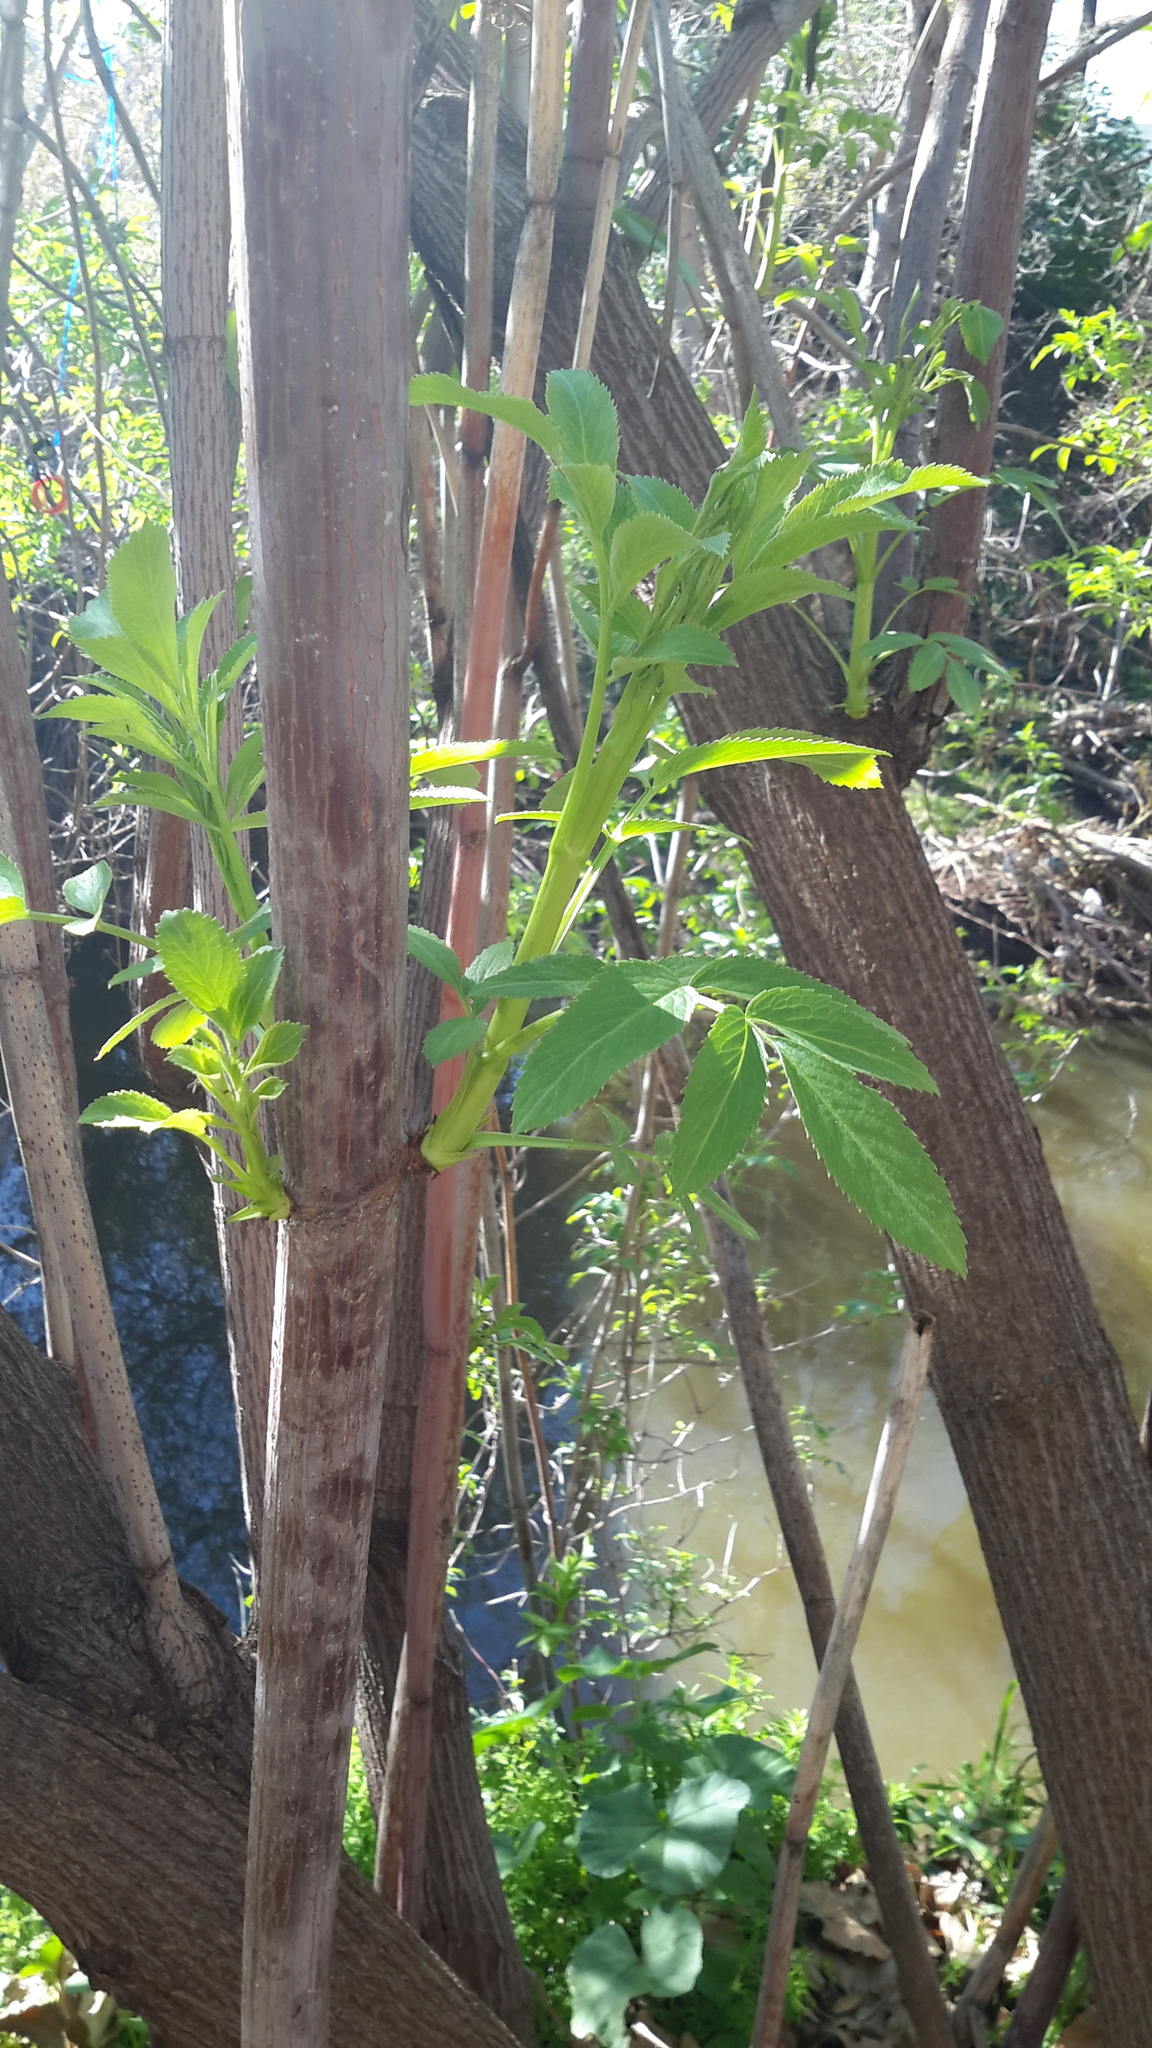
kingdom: Plantae
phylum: Tracheophyta
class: Magnoliopsida
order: Dipsacales
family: Viburnaceae
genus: Sambucus
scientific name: Sambucus cerulea
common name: Blue elder
